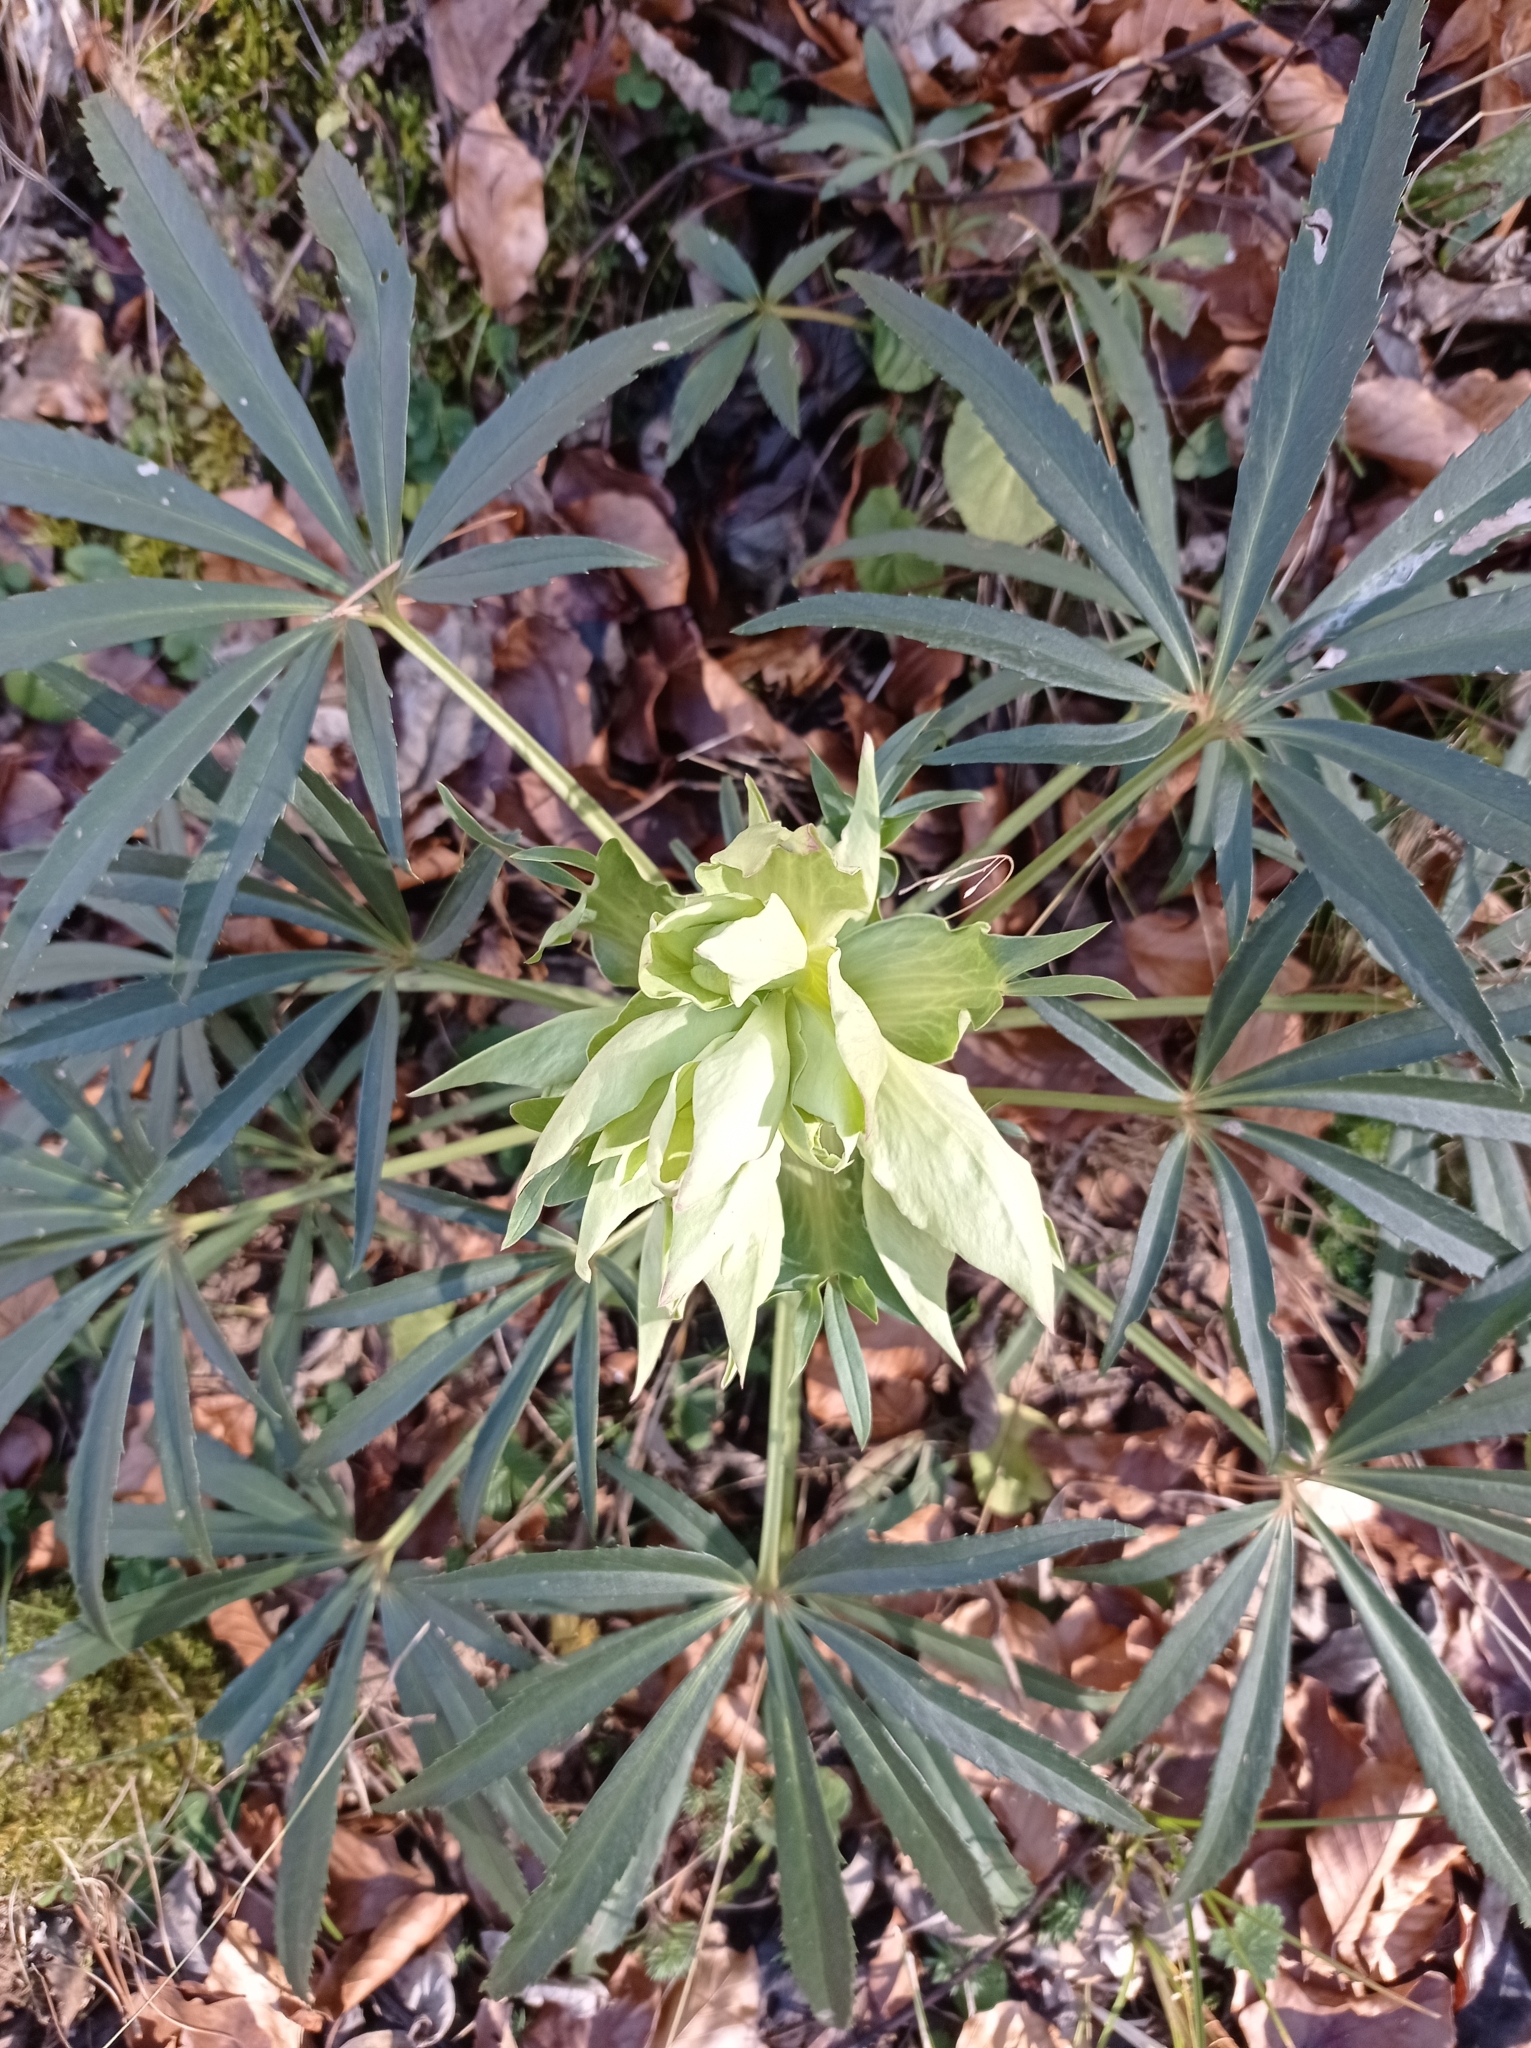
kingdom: Plantae
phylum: Tracheophyta
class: Magnoliopsida
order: Ranunculales
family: Ranunculaceae
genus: Helleborus
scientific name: Helleborus foetidus
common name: Stinking hellebore
